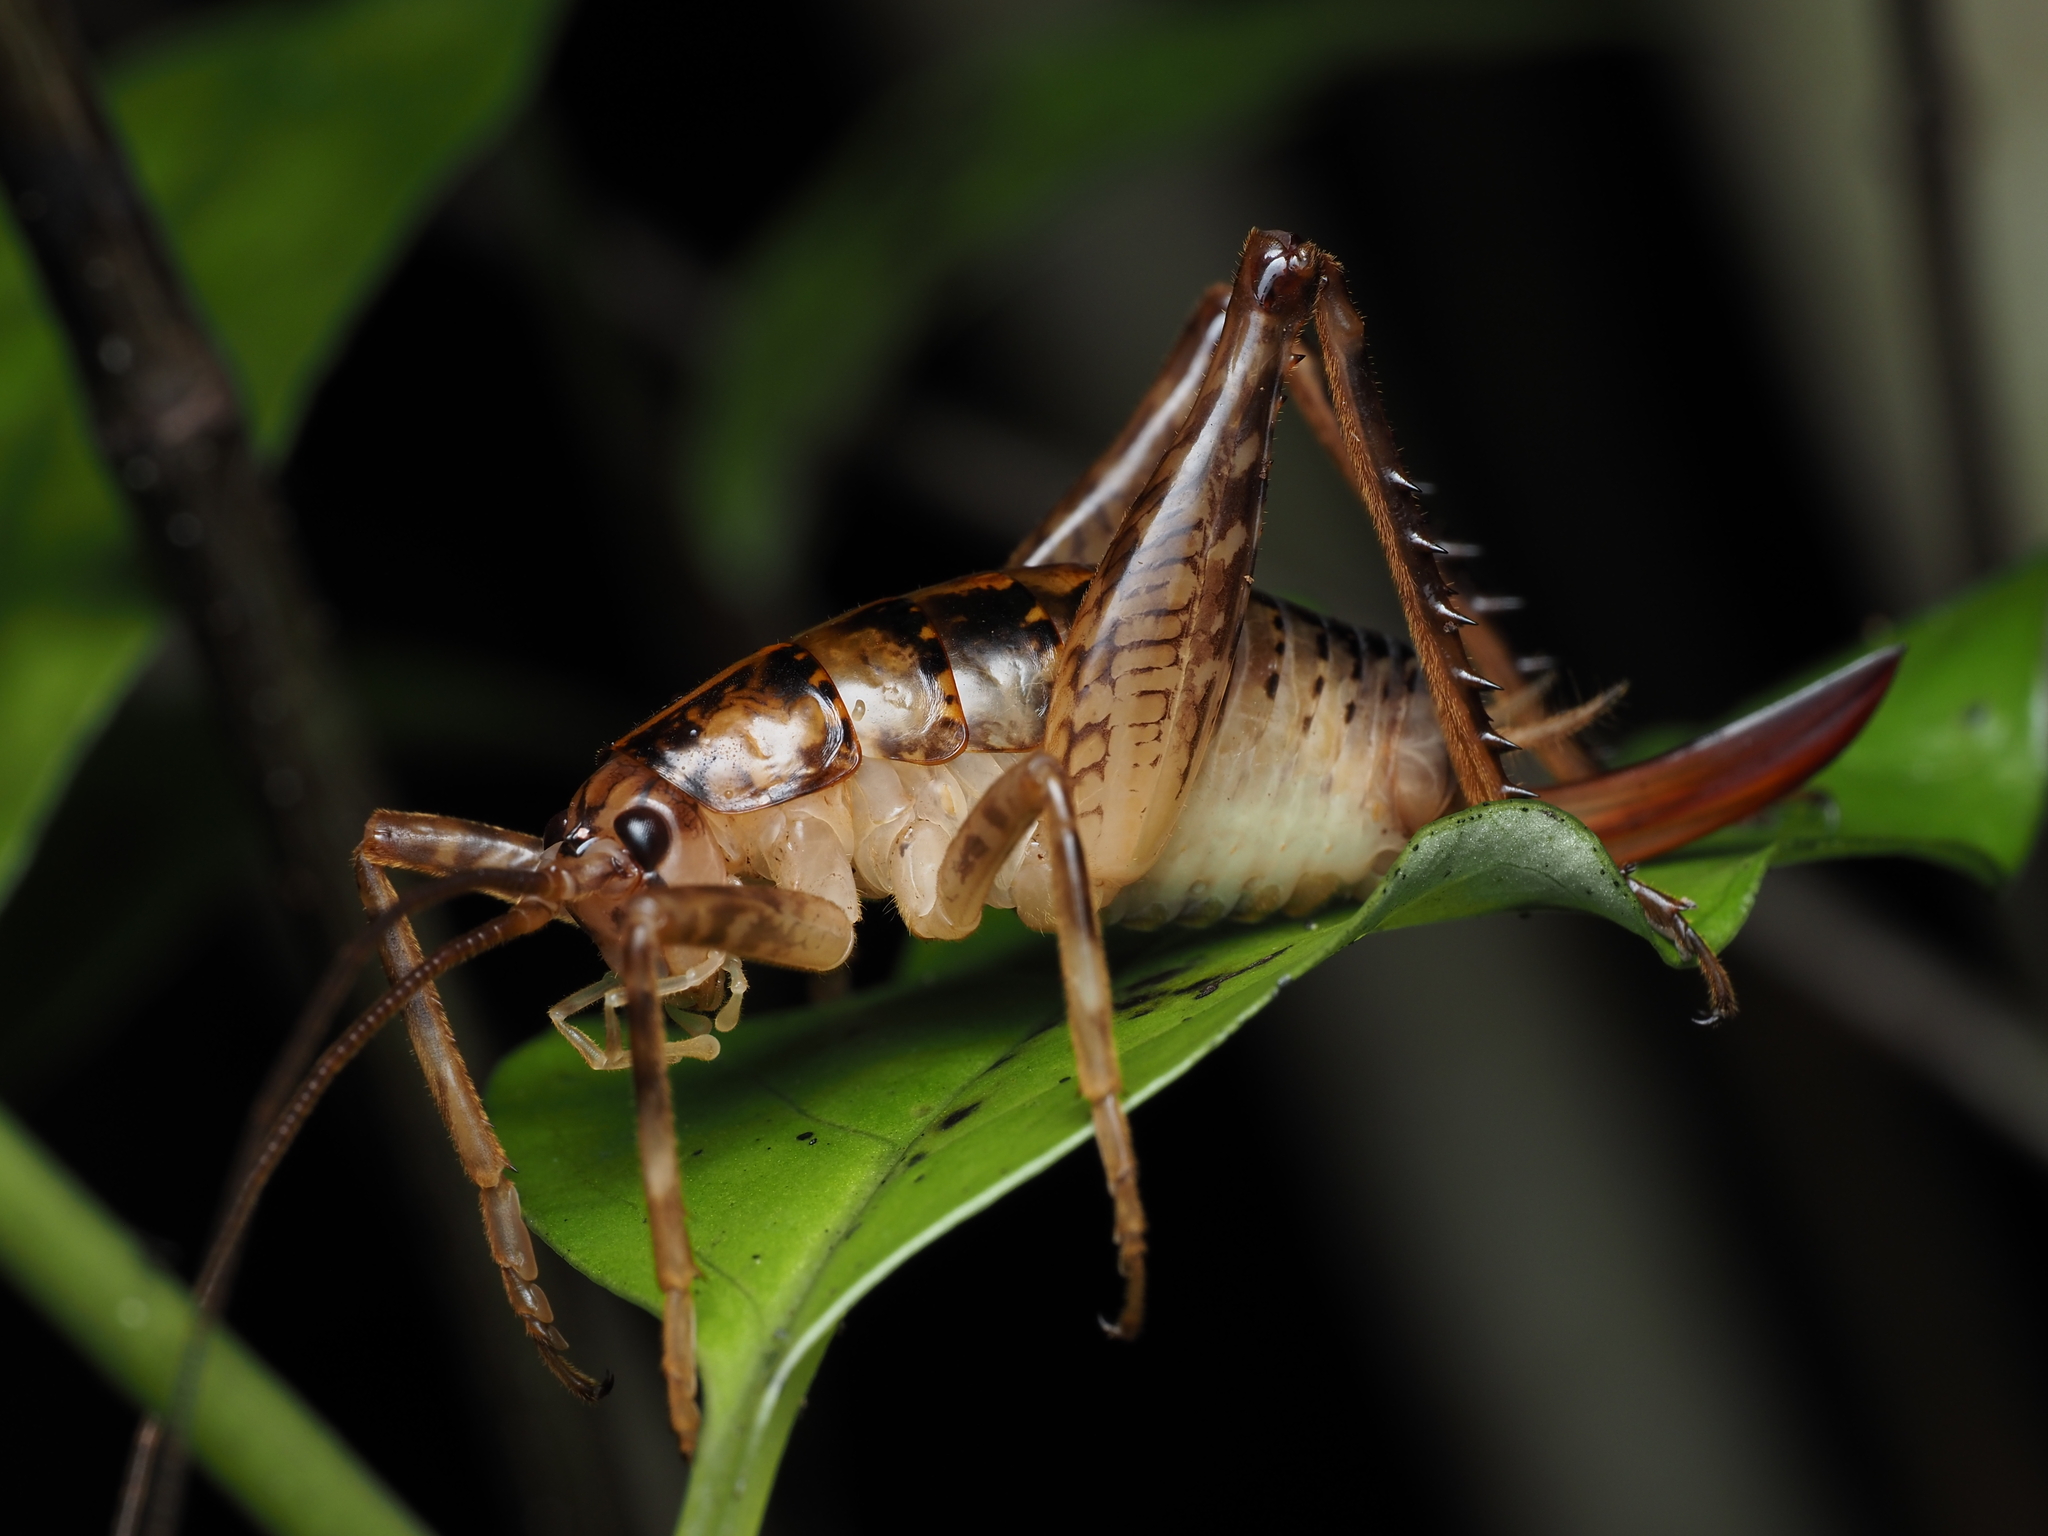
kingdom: Animalia
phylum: Arthropoda
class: Insecta
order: Orthoptera
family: Rhaphidophoridae
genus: Talitropsis
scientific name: Talitropsis sedilloti
